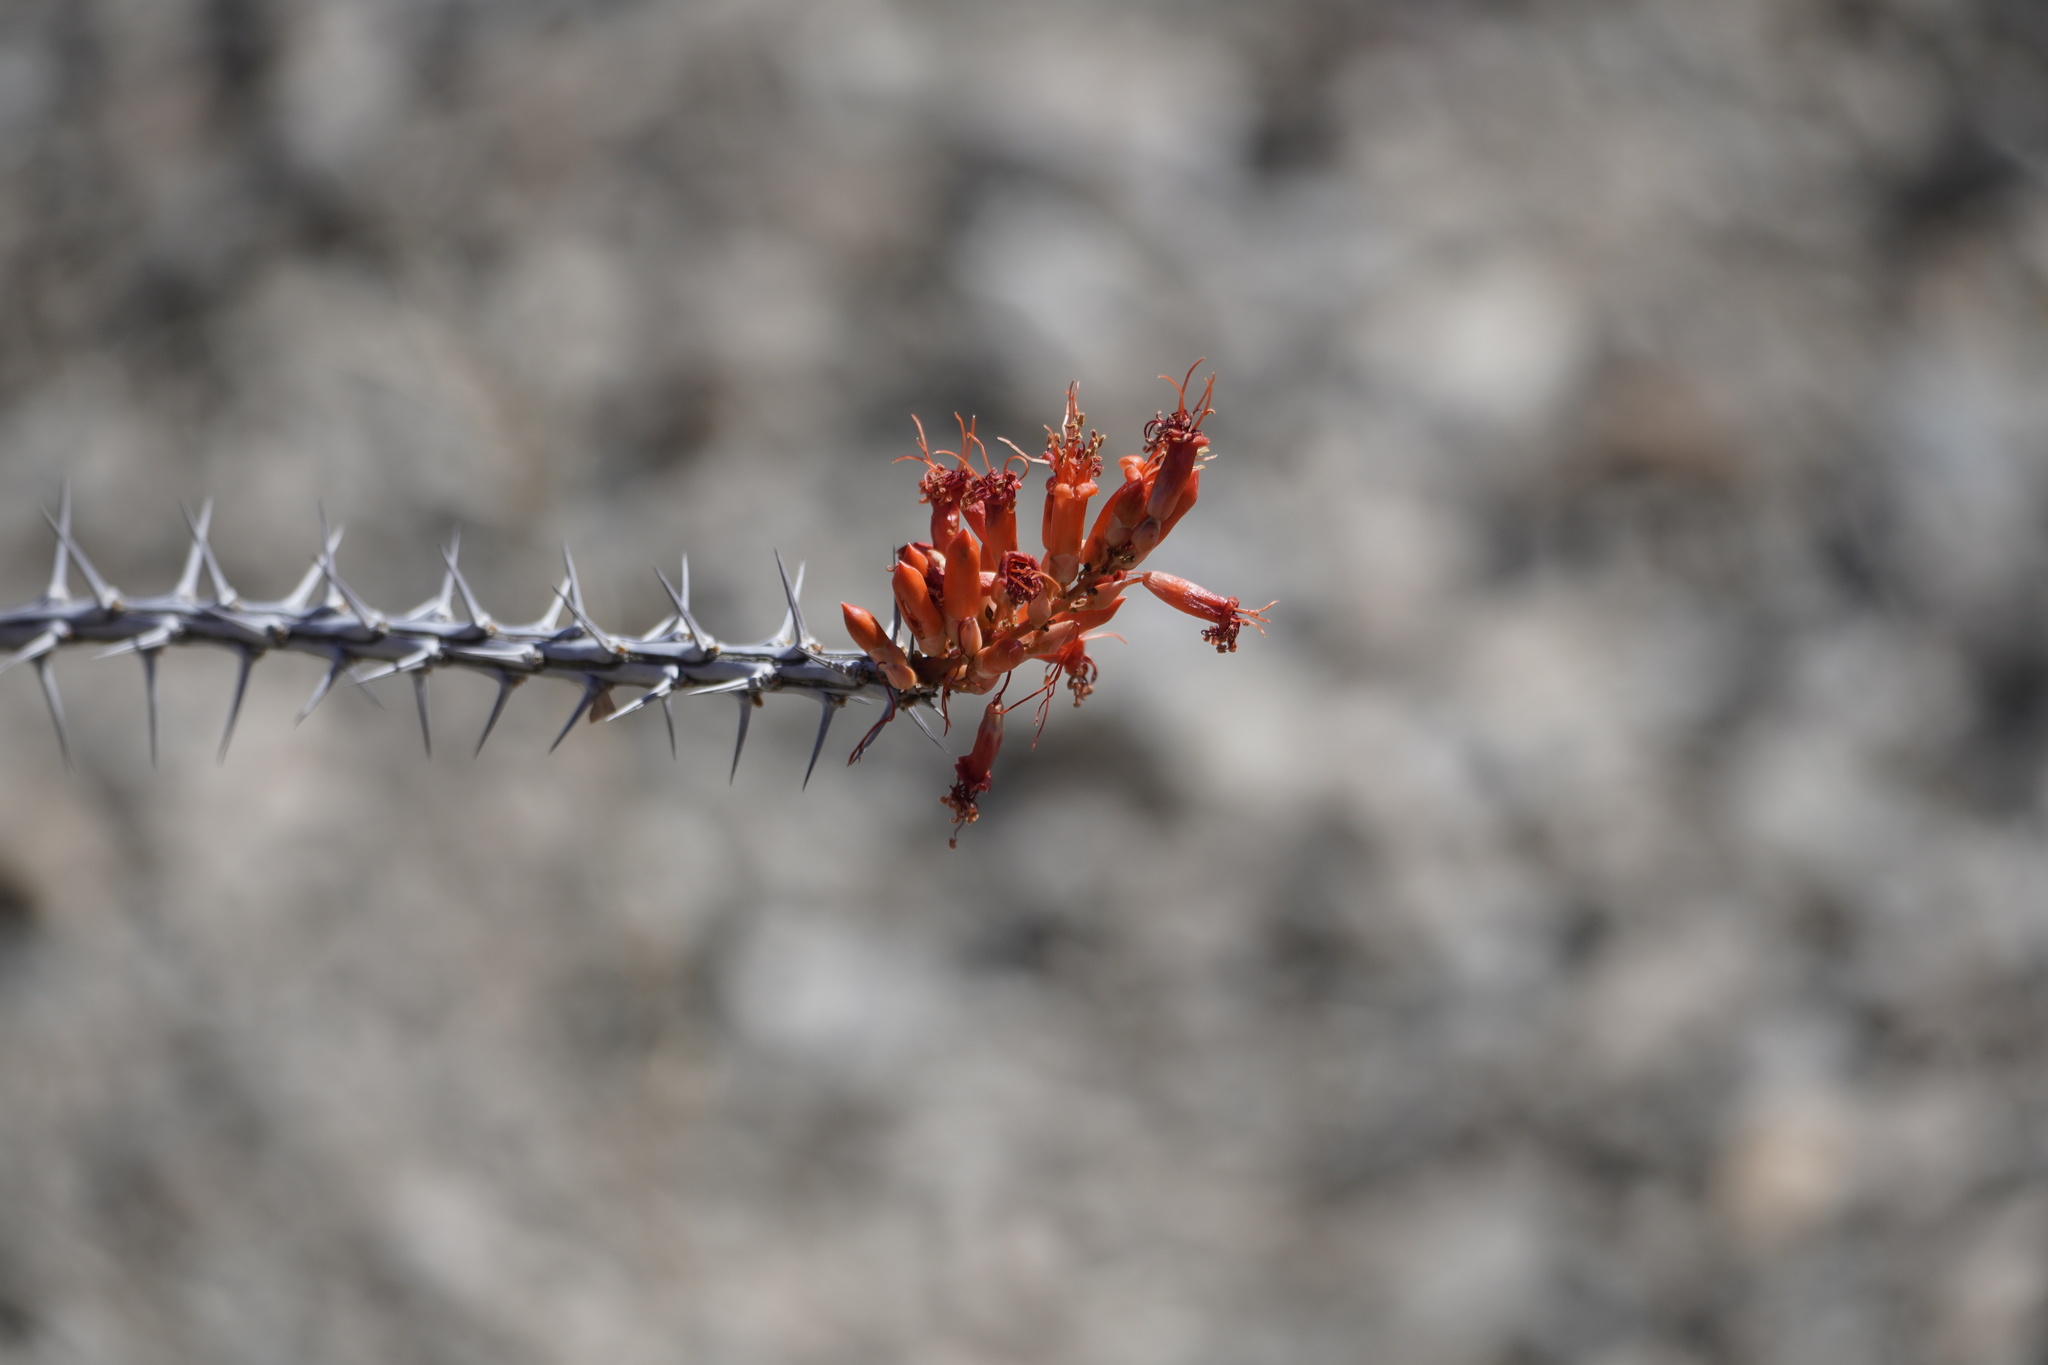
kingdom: Plantae
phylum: Tracheophyta
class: Magnoliopsida
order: Ericales
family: Fouquieriaceae
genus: Fouquieria
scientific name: Fouquieria splendens
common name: Vine-cactus
